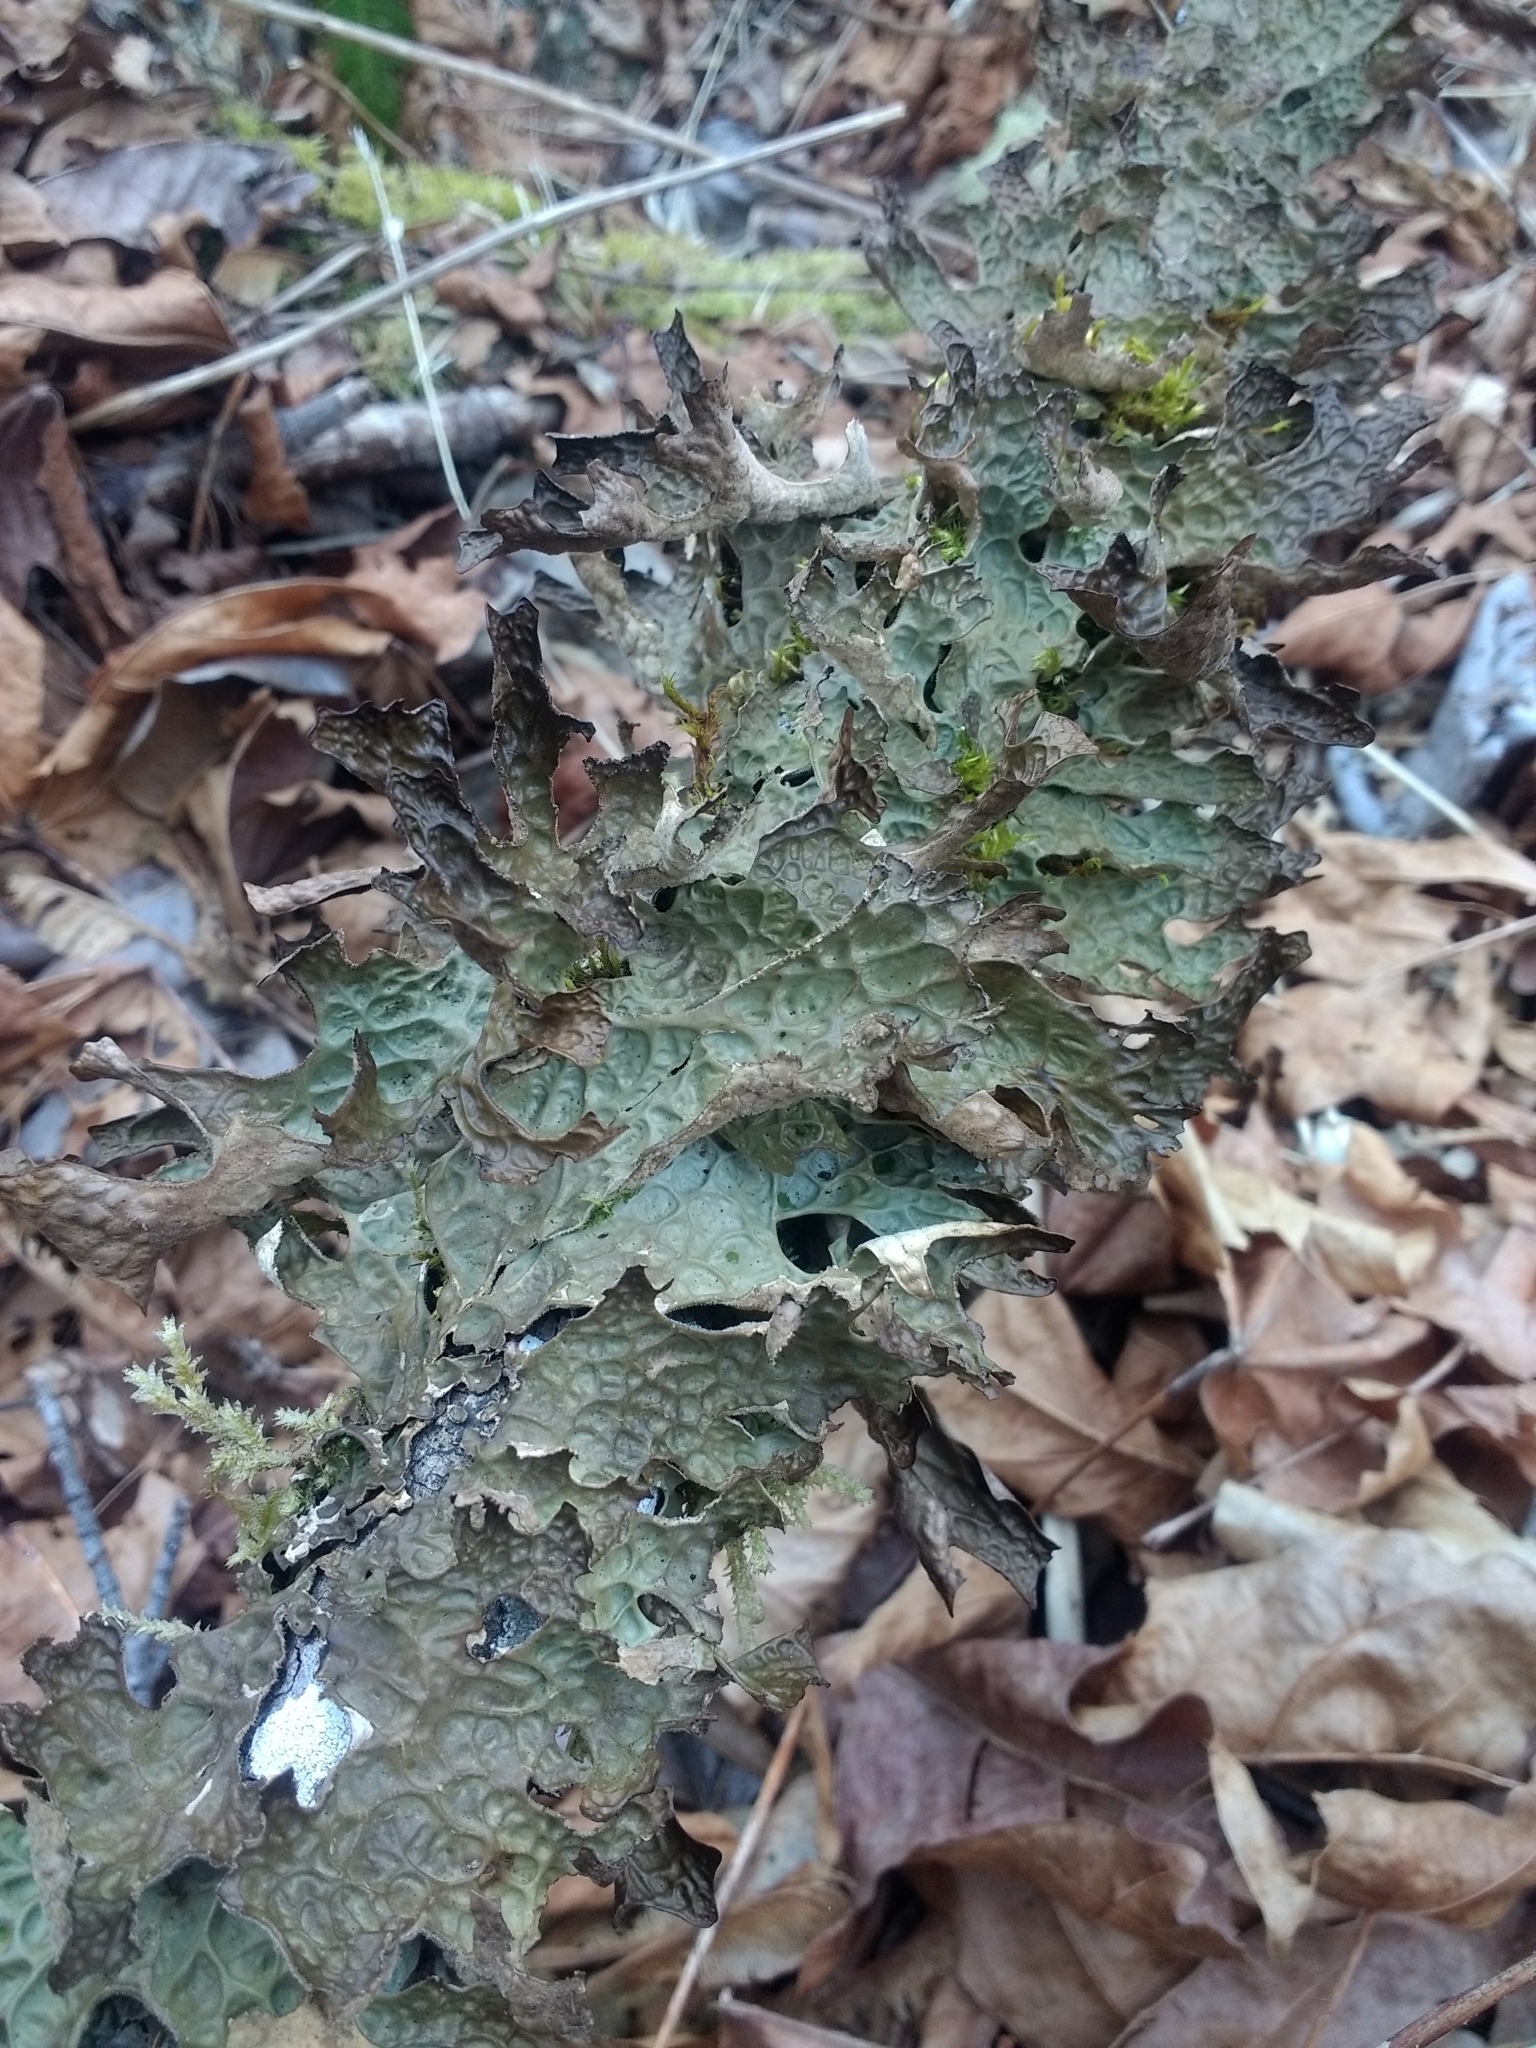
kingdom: Fungi
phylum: Ascomycota
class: Lecanoromycetes
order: Peltigerales
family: Lobariaceae
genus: Lobaria
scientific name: Lobaria pulmonaria
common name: Lungwort
